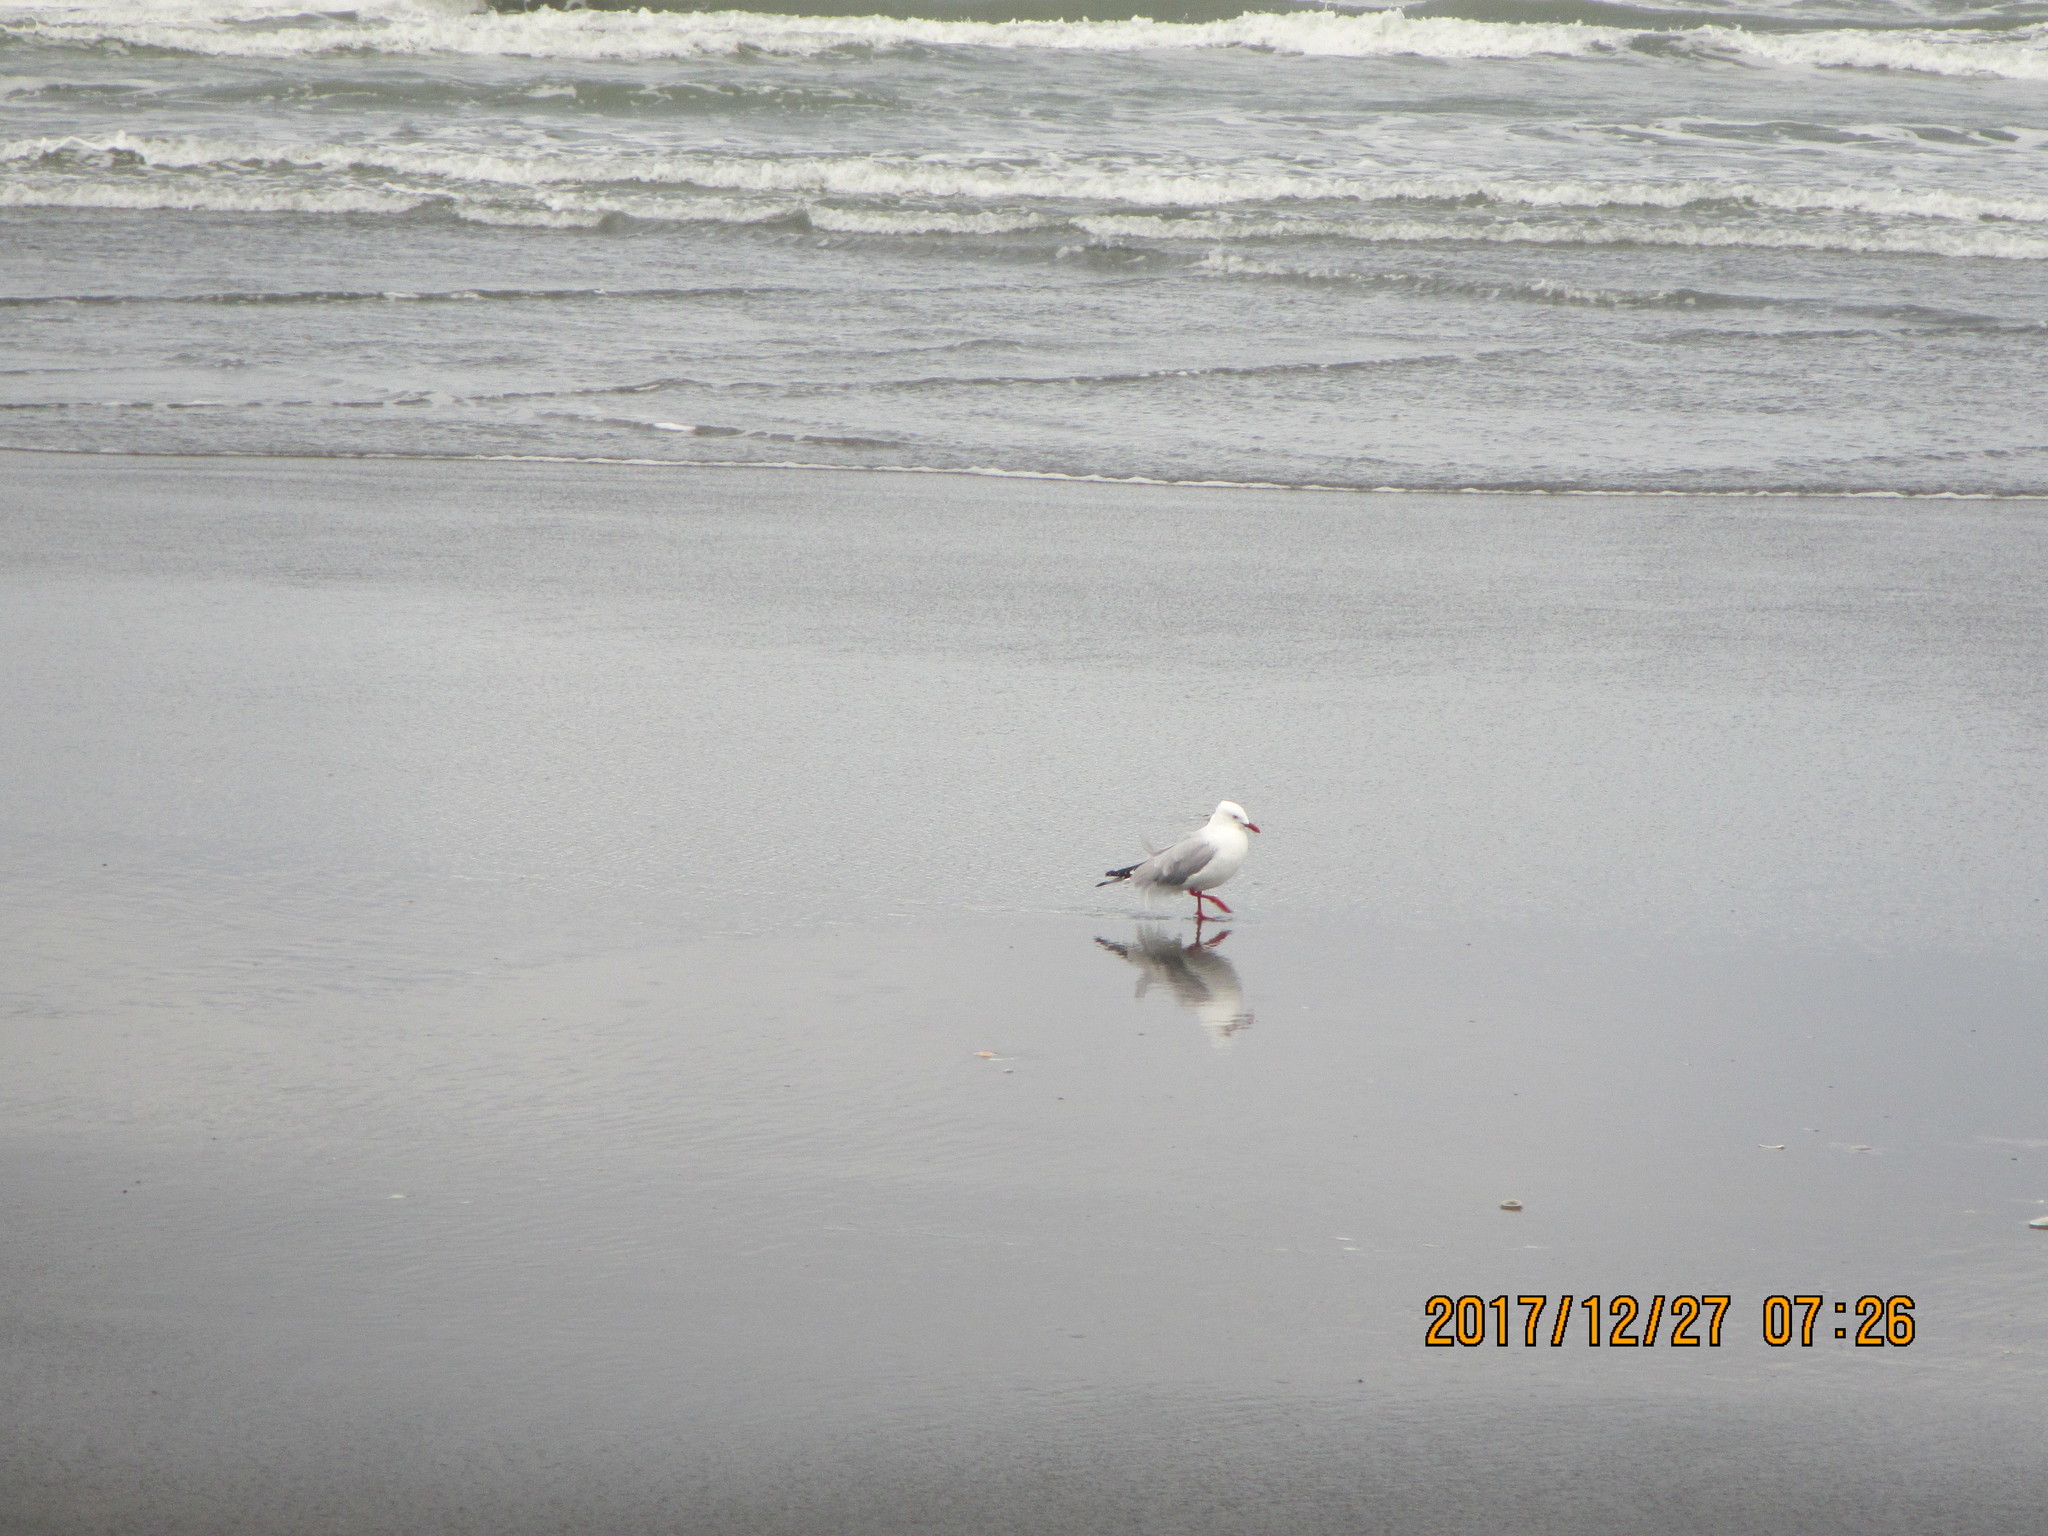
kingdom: Animalia
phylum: Chordata
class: Aves
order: Charadriiformes
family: Laridae
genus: Chroicocephalus
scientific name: Chroicocephalus bulleri
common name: Black-billed gull
